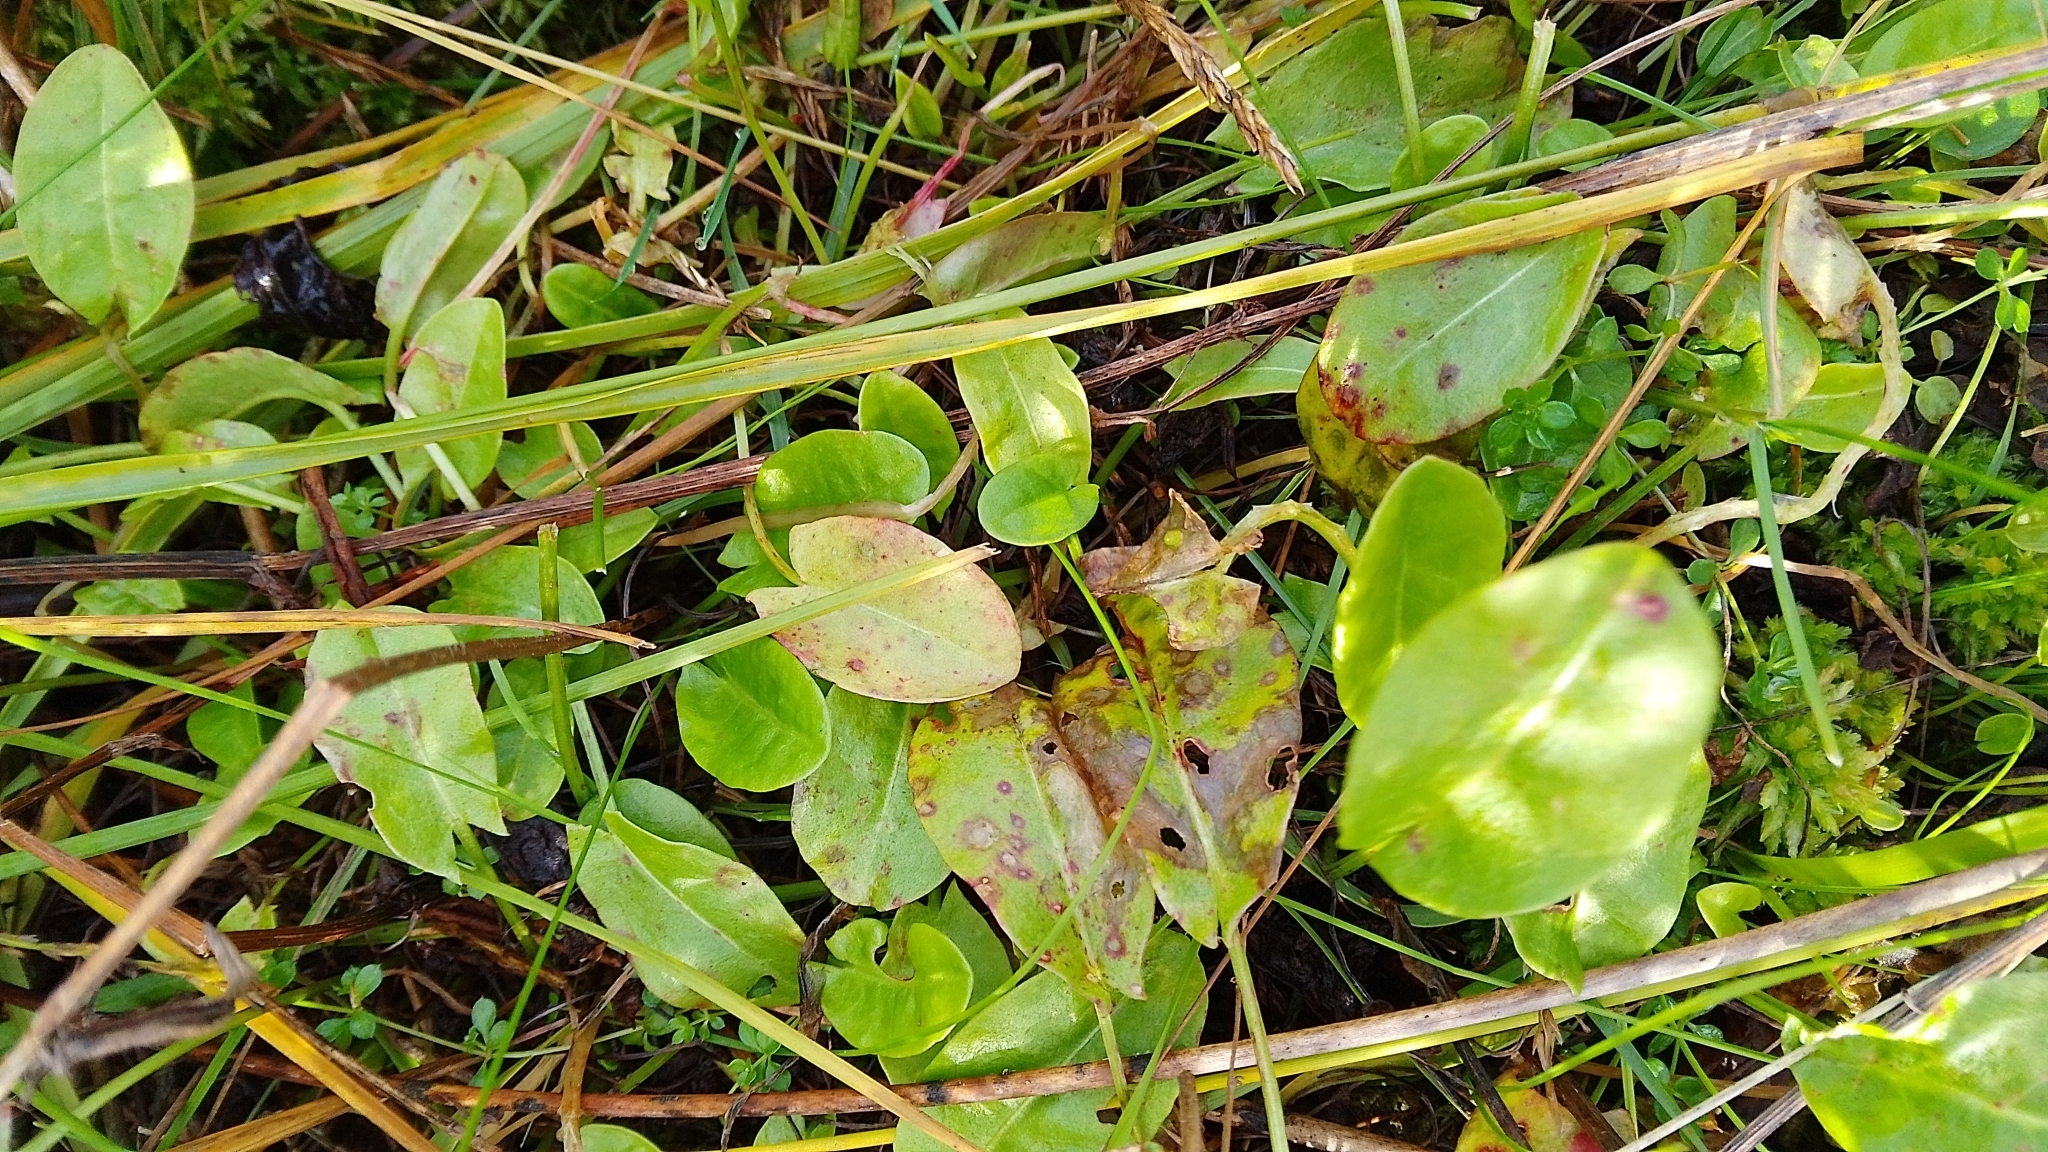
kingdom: Plantae
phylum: Tracheophyta
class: Magnoliopsida
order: Caryophyllales
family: Polygonaceae
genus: Rumex
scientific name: Rumex acetosa
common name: Garden sorrel
